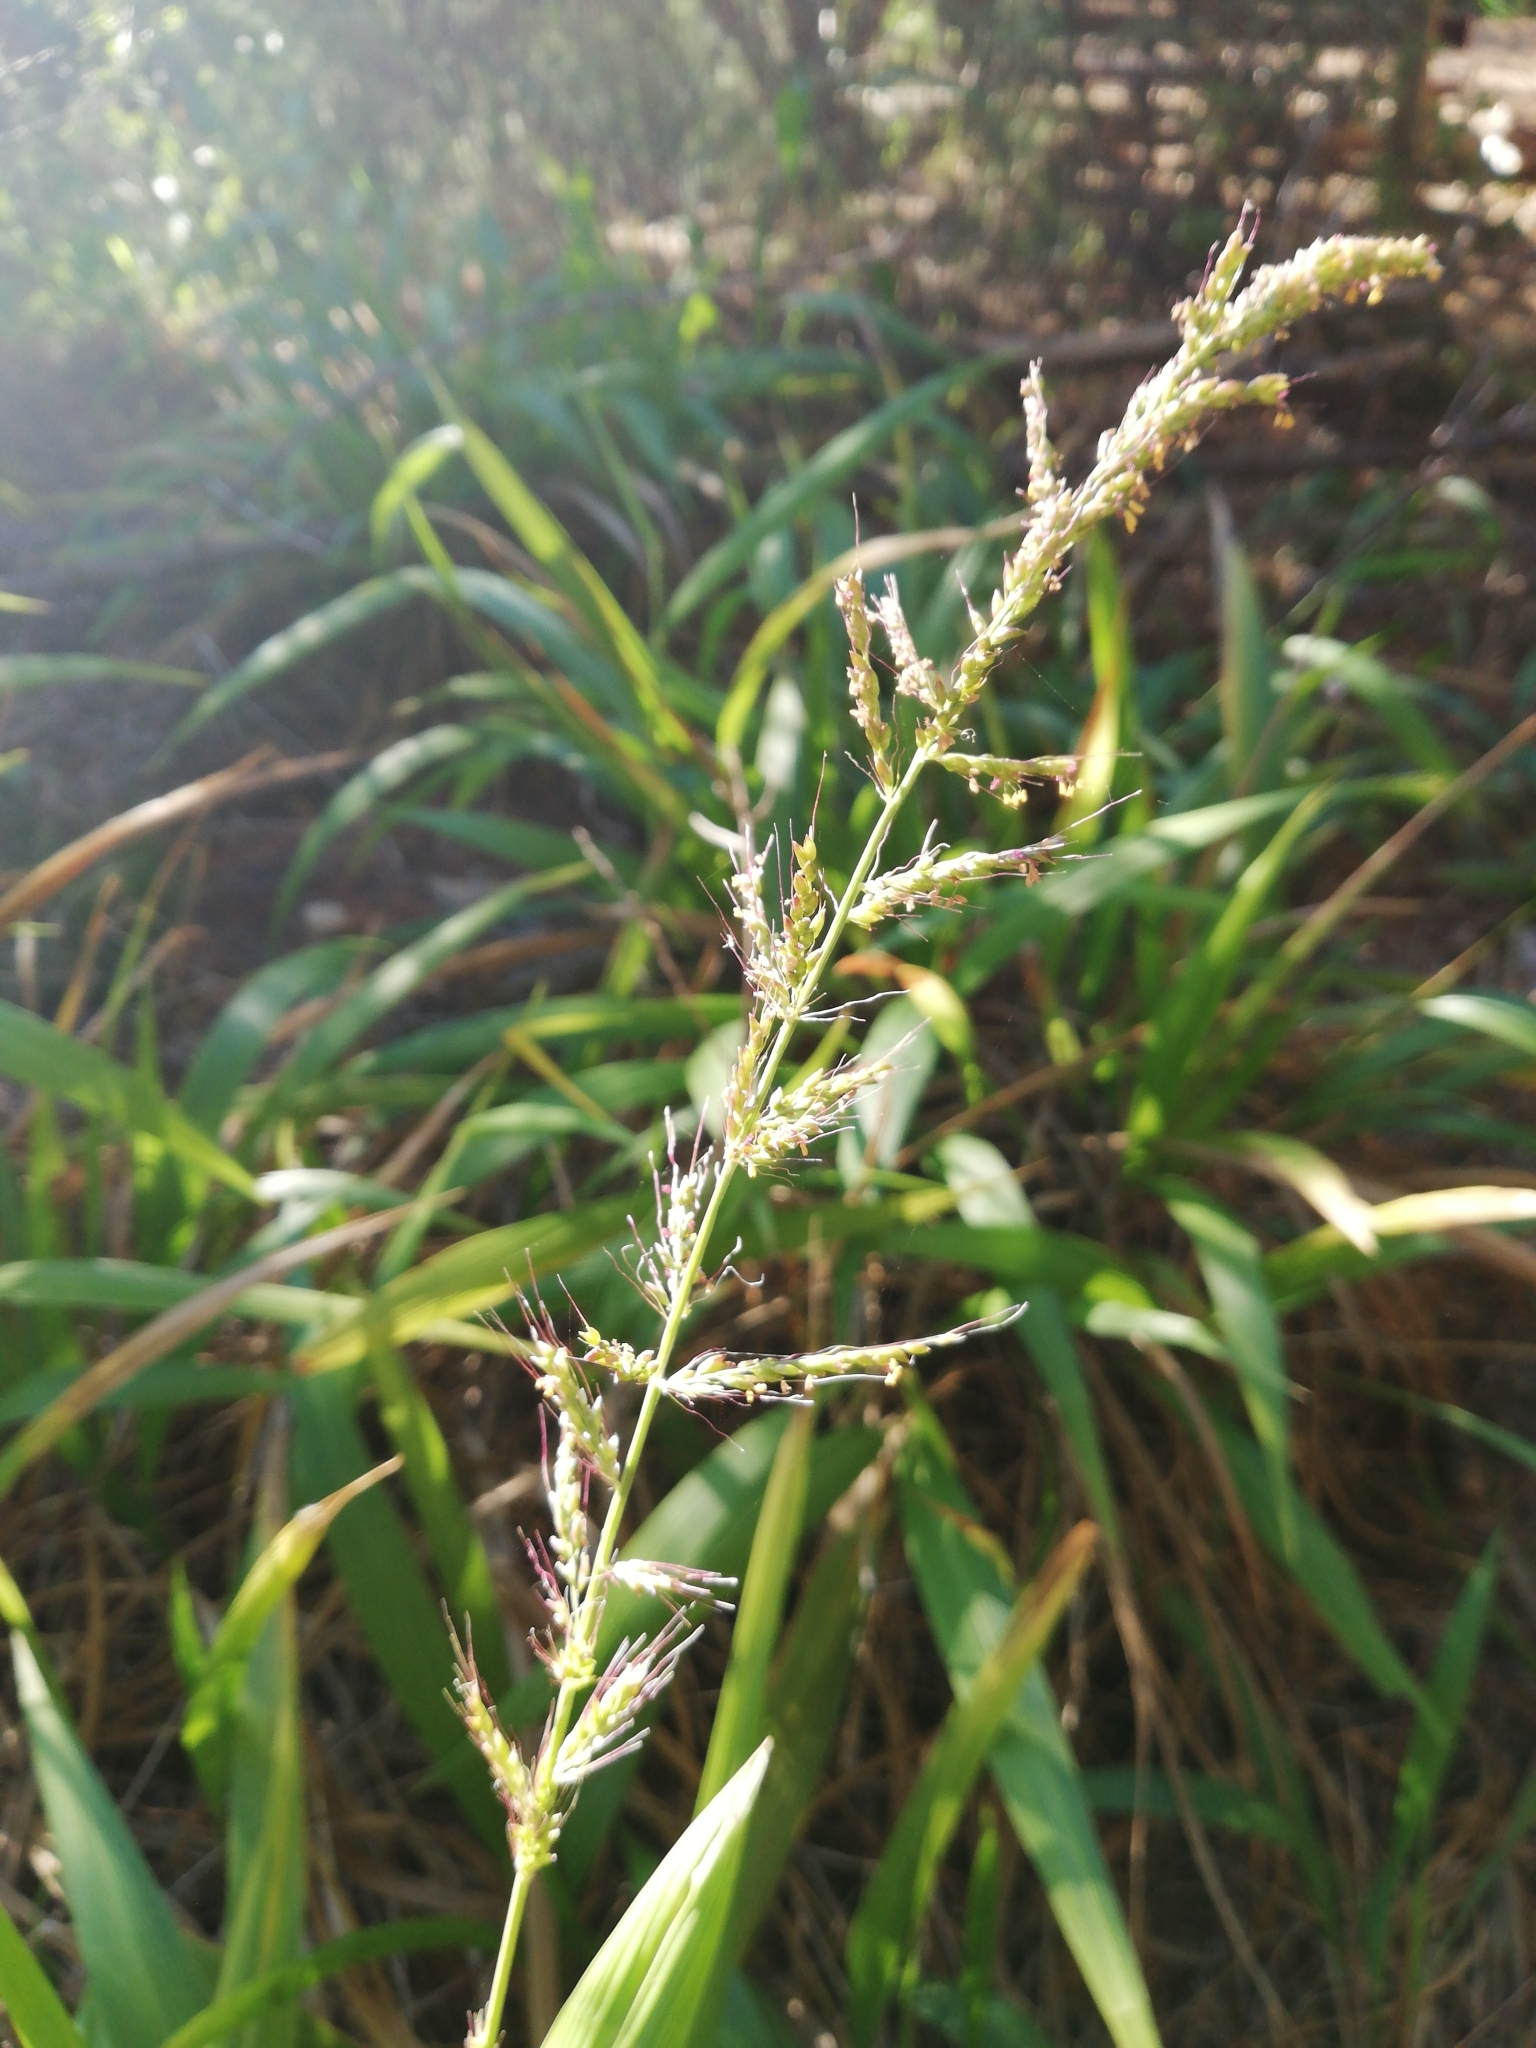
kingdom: Plantae
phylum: Tracheophyta
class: Liliopsida
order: Poales
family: Poaceae
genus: Setaria
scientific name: Setaria megaphylla
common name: Bigleaf bristlegrass
